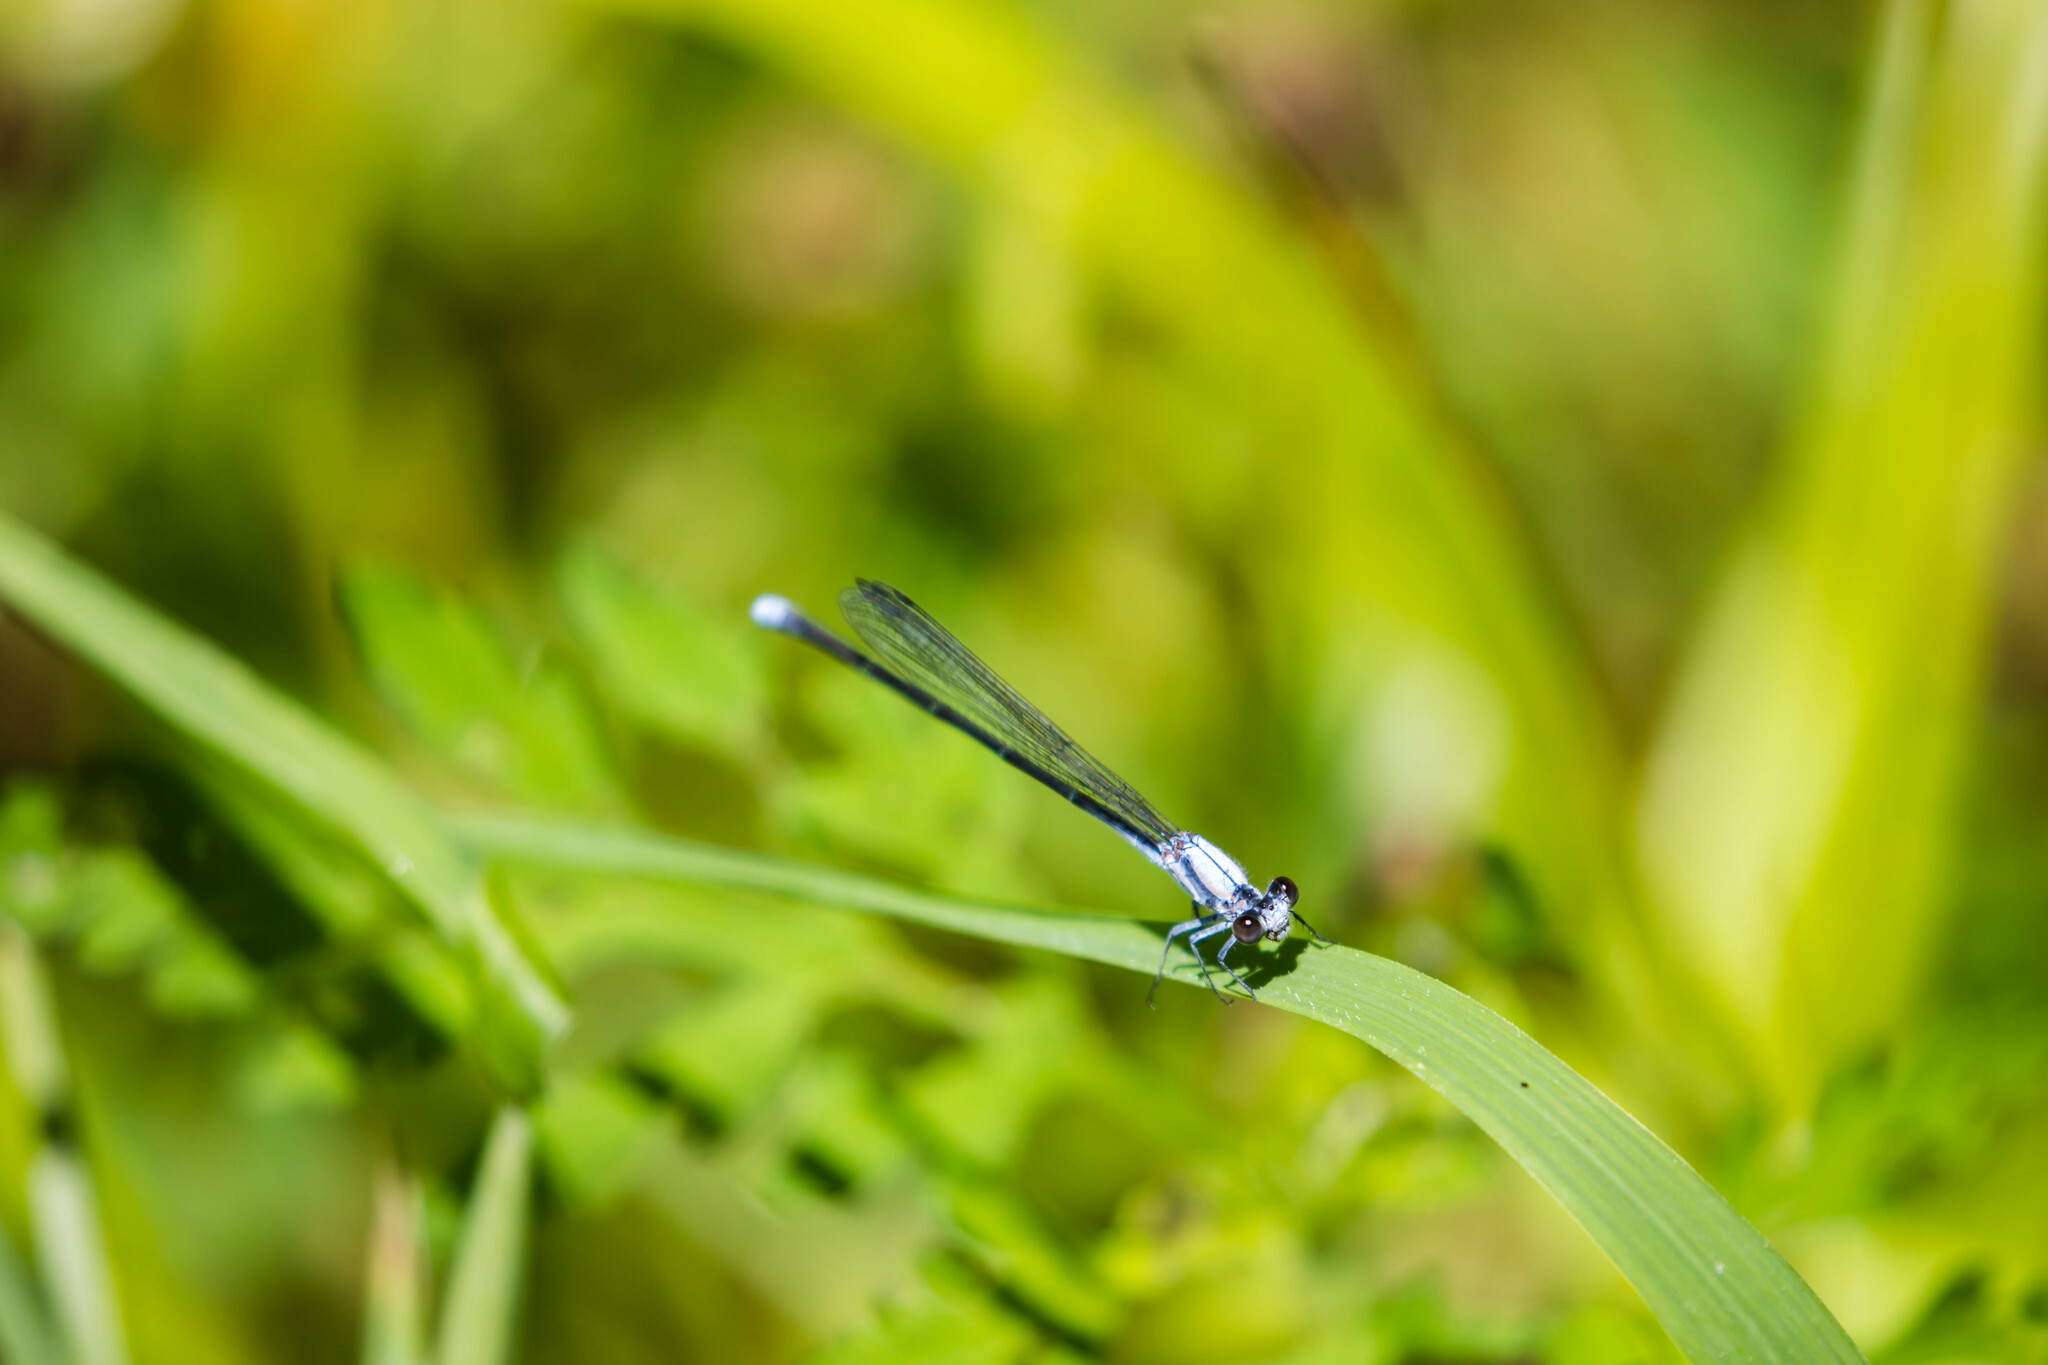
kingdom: Animalia
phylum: Arthropoda
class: Insecta
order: Odonata
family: Coenagrionidae
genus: Argia
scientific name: Argia moesta
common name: Powdered dancer
